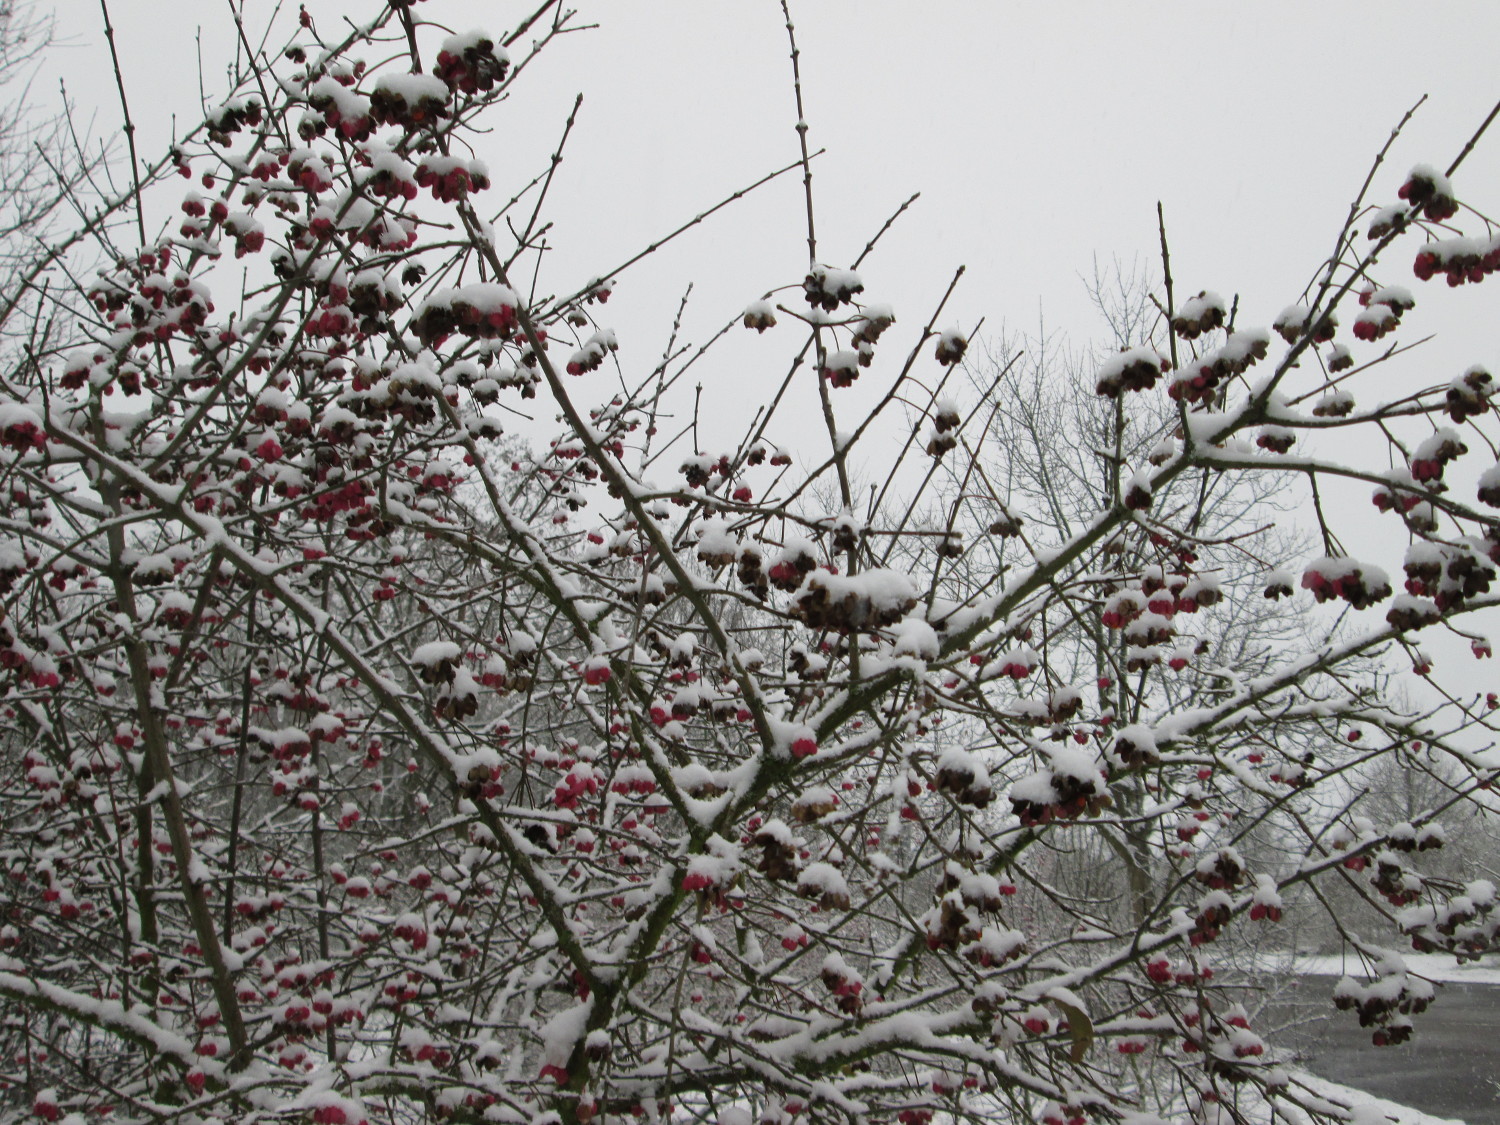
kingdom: Plantae
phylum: Tracheophyta
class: Magnoliopsida
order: Celastrales
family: Celastraceae
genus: Euonymus
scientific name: Euonymus europaeus
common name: Spindle
